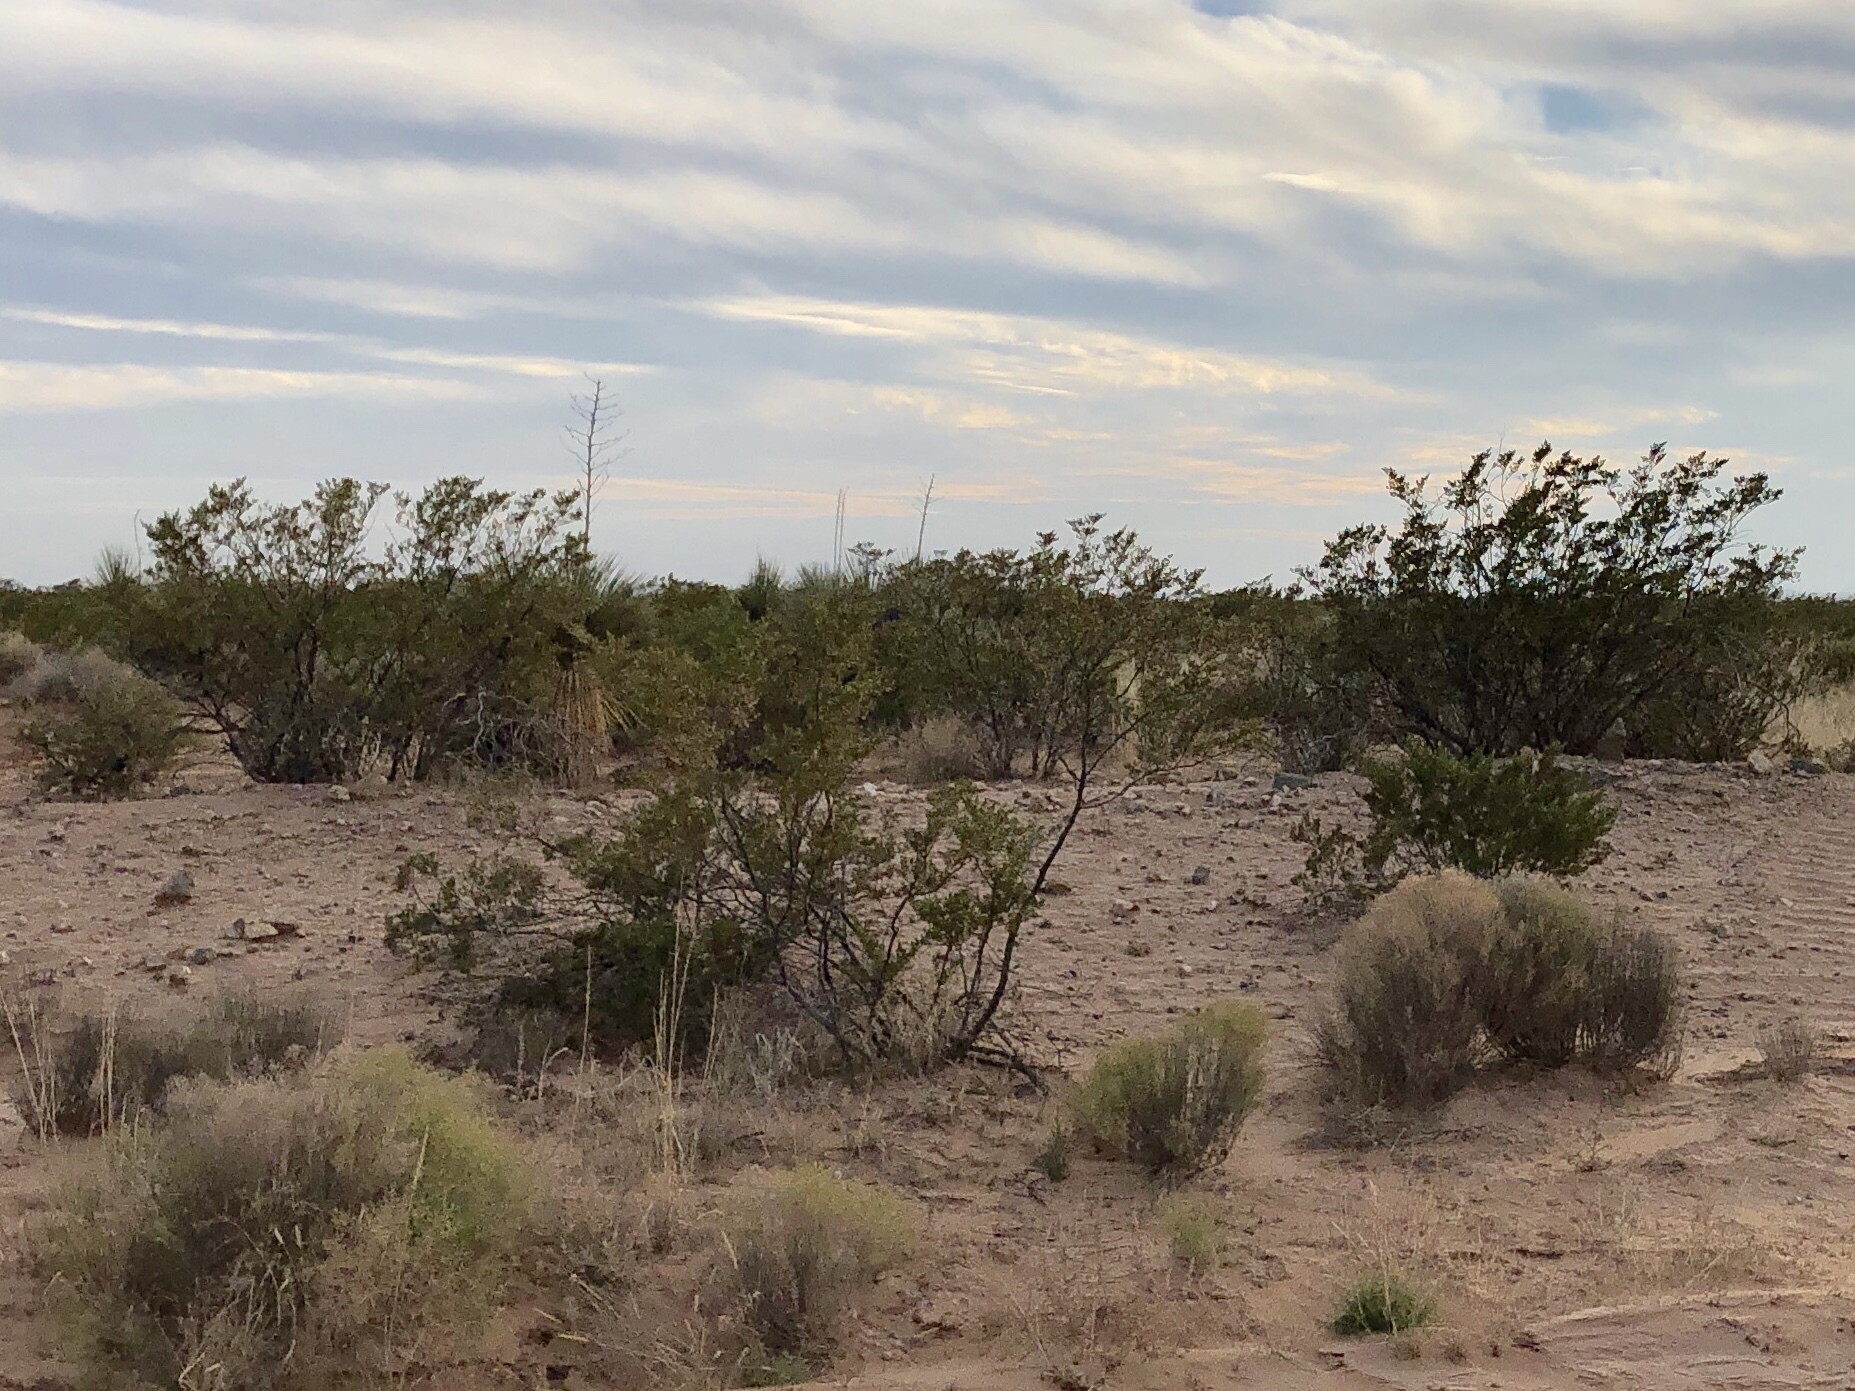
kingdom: Plantae
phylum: Tracheophyta
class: Magnoliopsida
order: Zygophyllales
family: Zygophyllaceae
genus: Larrea
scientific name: Larrea tridentata
